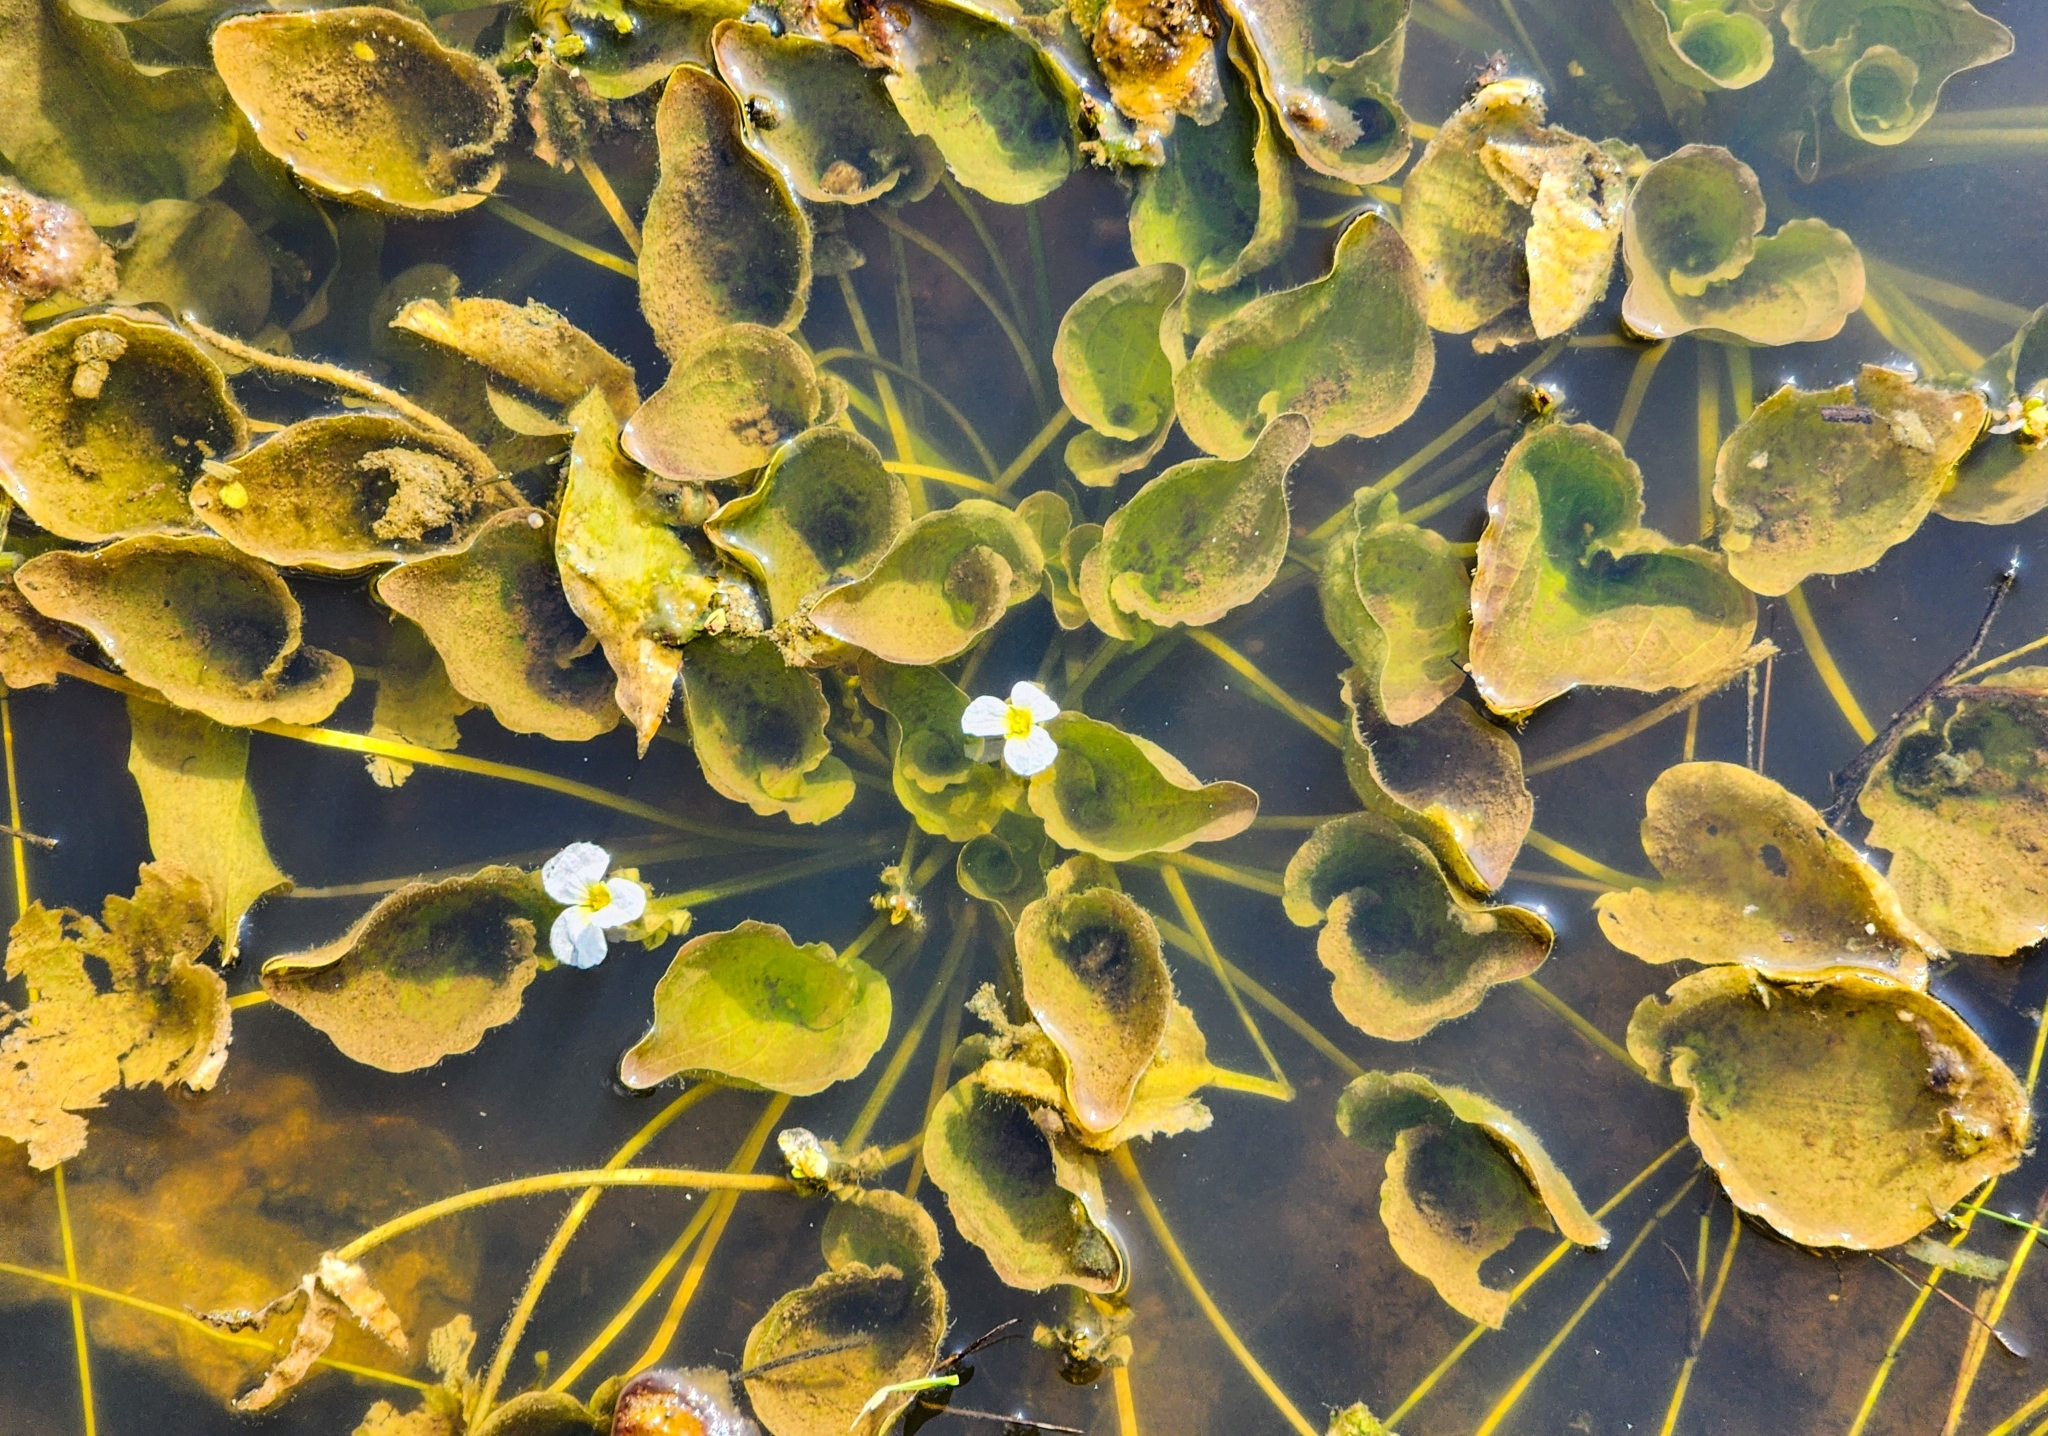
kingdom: Plantae
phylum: Tracheophyta
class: Liliopsida
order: Alismatales
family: Hydrocharitaceae
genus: Ottelia
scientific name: Ottelia alismoides
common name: Duck-lettuce
